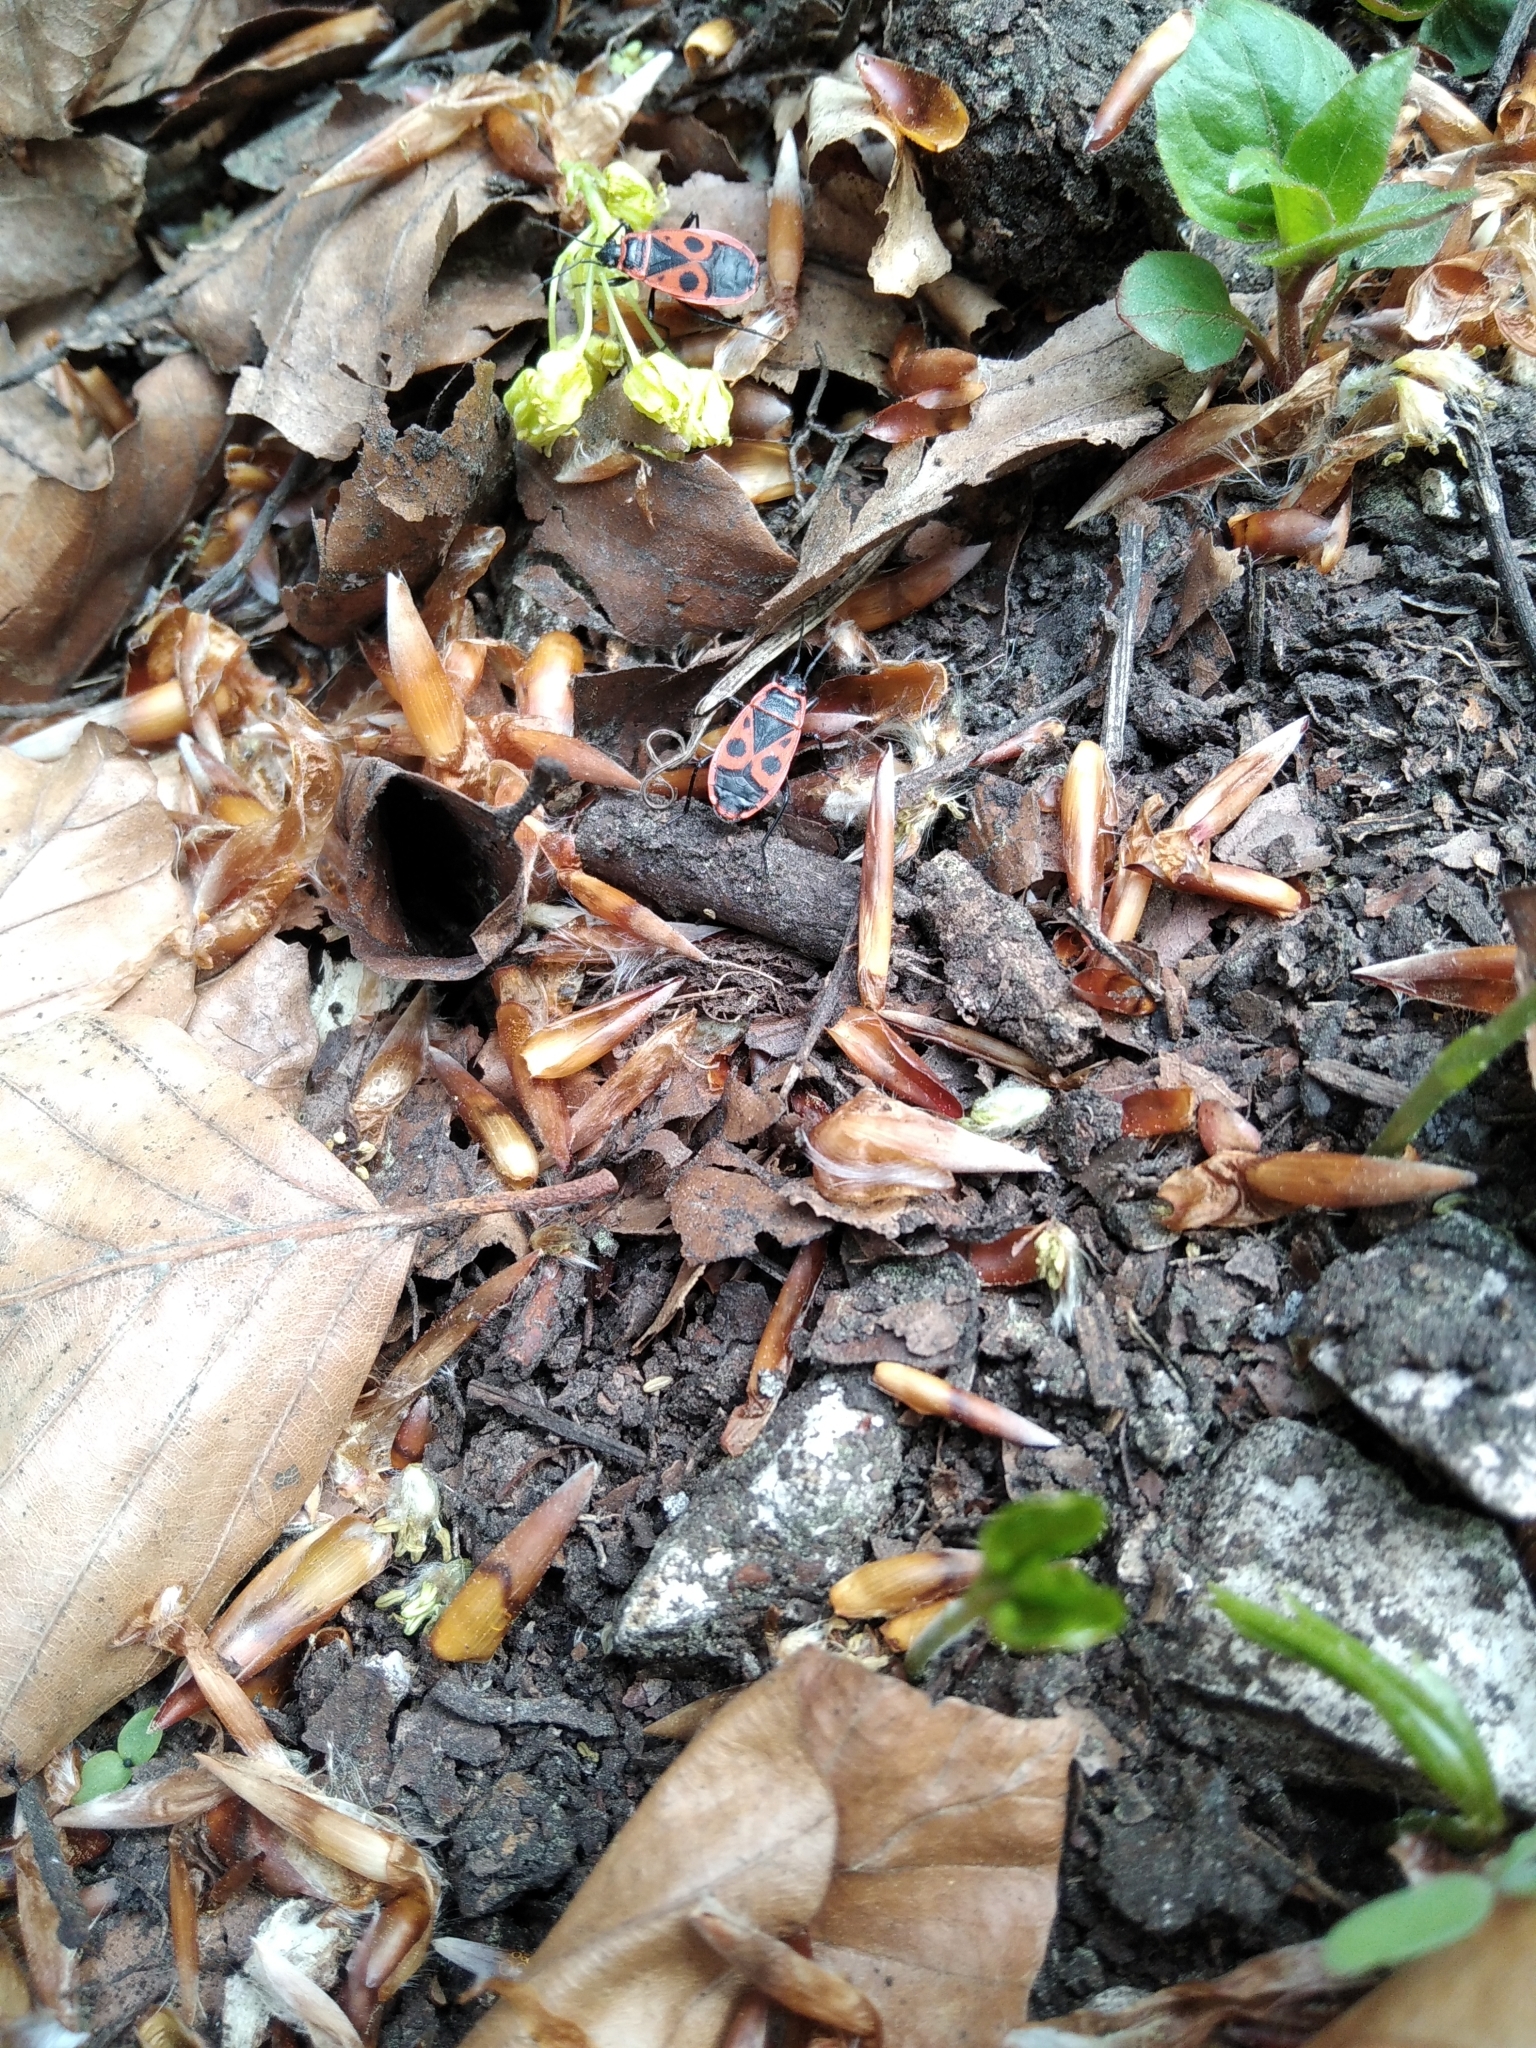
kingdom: Animalia
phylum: Arthropoda
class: Insecta
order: Hemiptera
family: Pyrrhocoridae
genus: Pyrrhocoris
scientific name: Pyrrhocoris apterus
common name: Firebug
